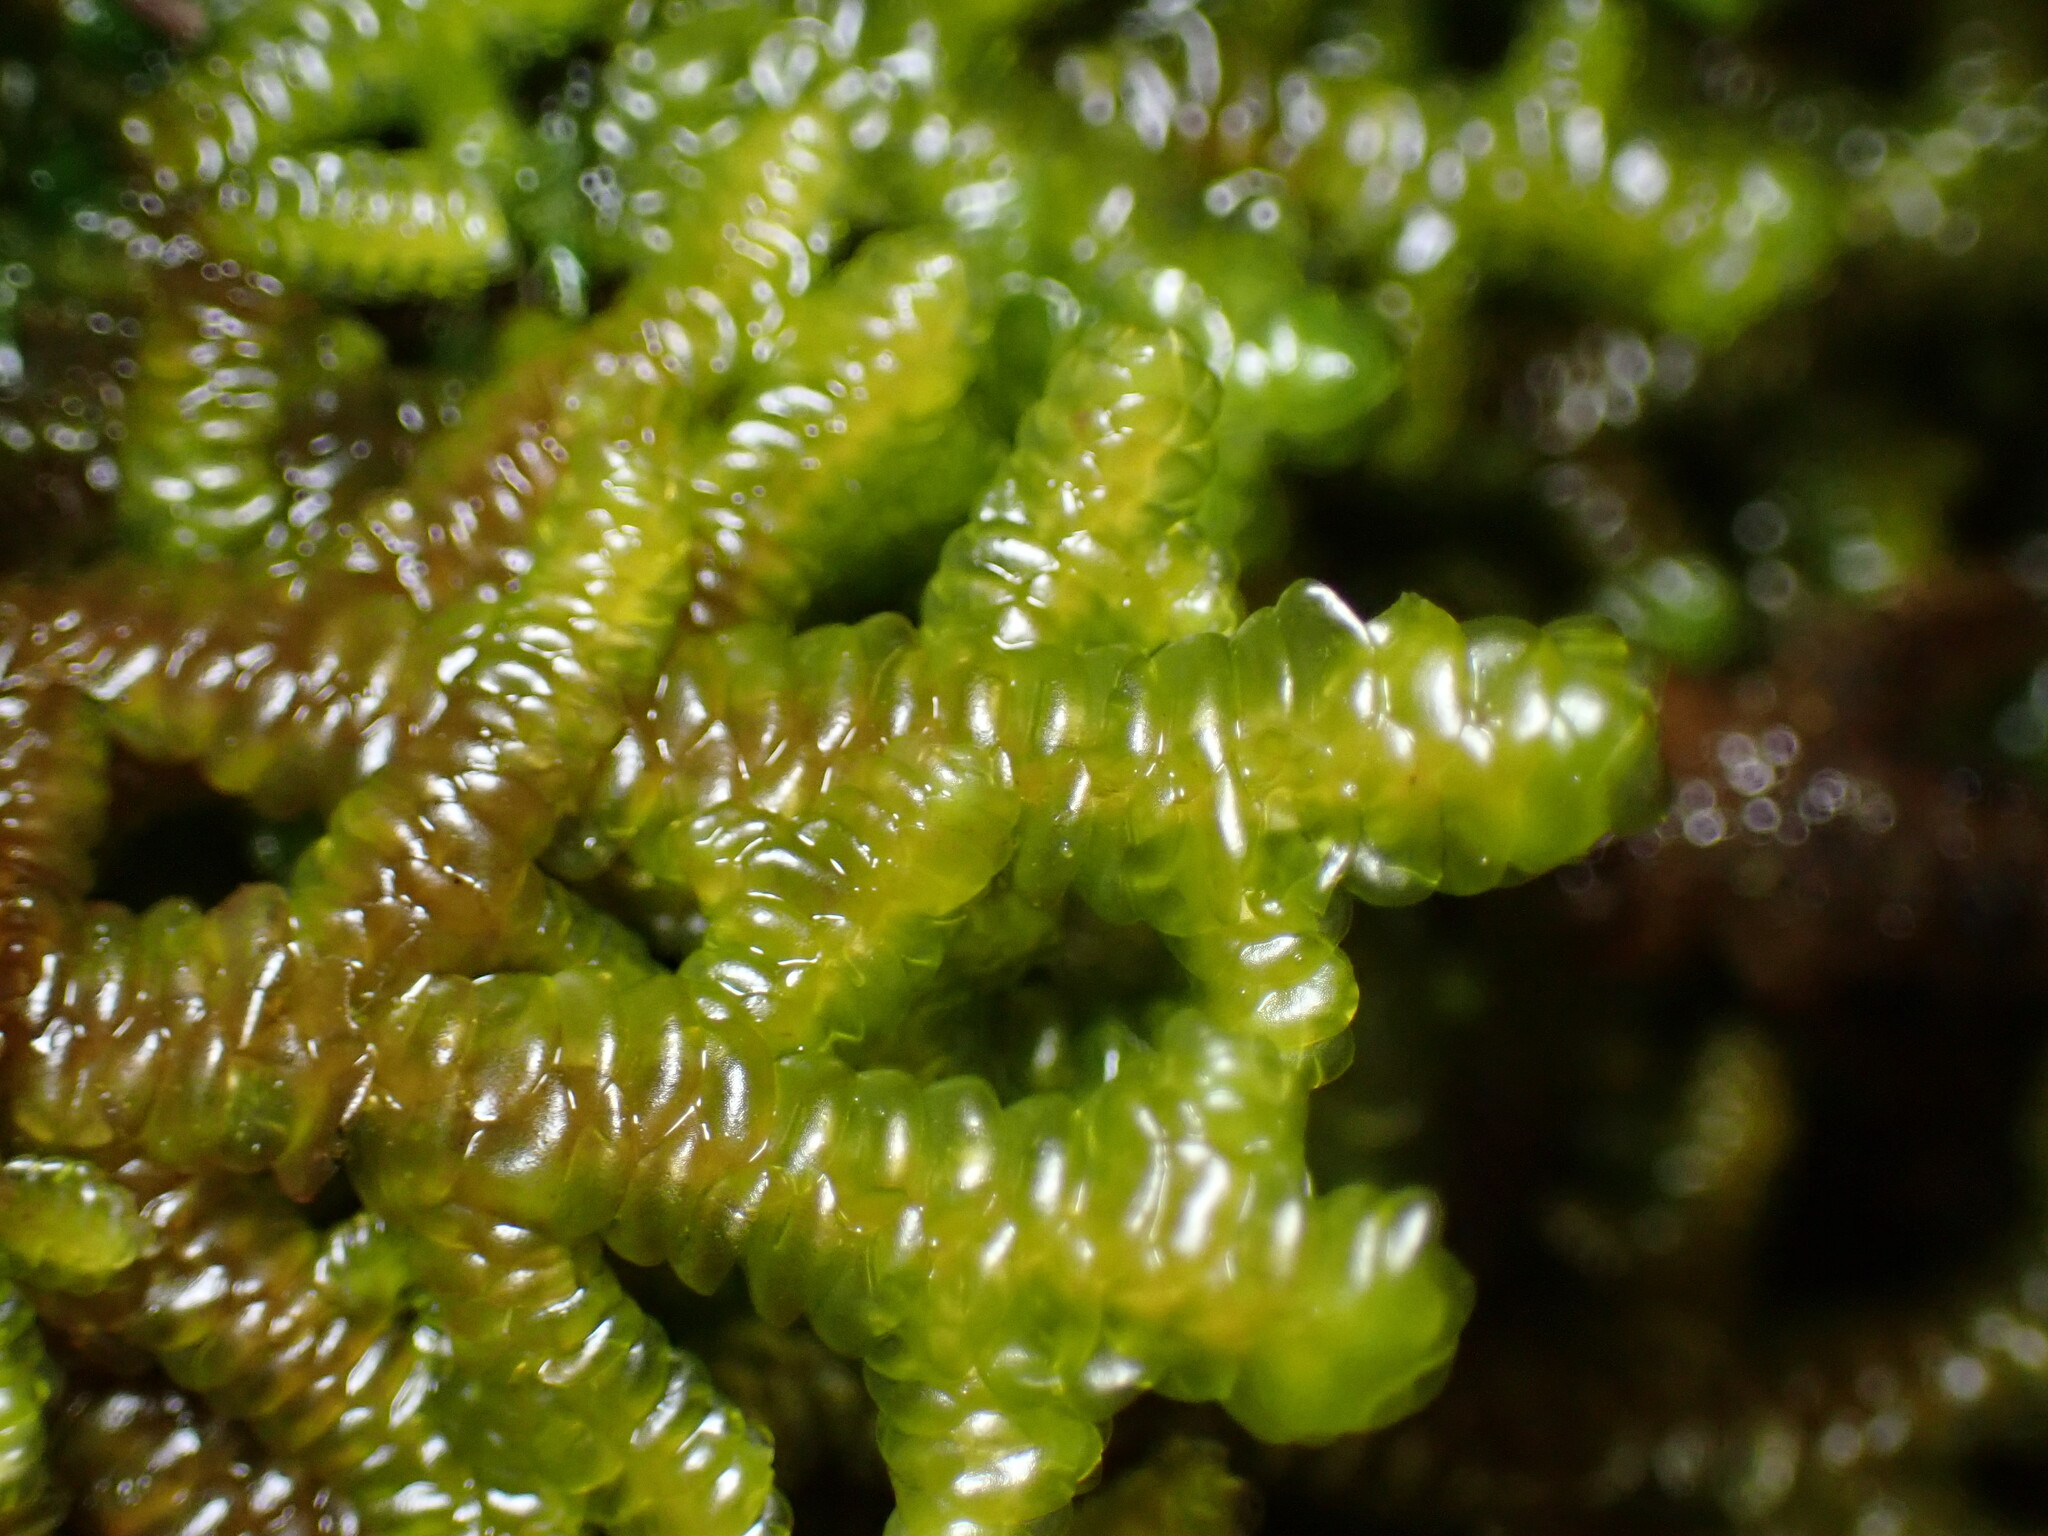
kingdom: Plantae
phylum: Marchantiophyta
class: Jungermanniopsida
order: Porellales
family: Porellaceae
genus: Porella
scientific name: Porella navicularis
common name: Tree ruffle liverwort
